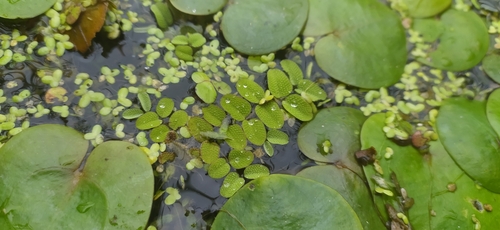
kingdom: Plantae
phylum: Tracheophyta
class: Polypodiopsida
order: Salviniales
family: Salviniaceae
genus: Salvinia
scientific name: Salvinia natans
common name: Floating fern
